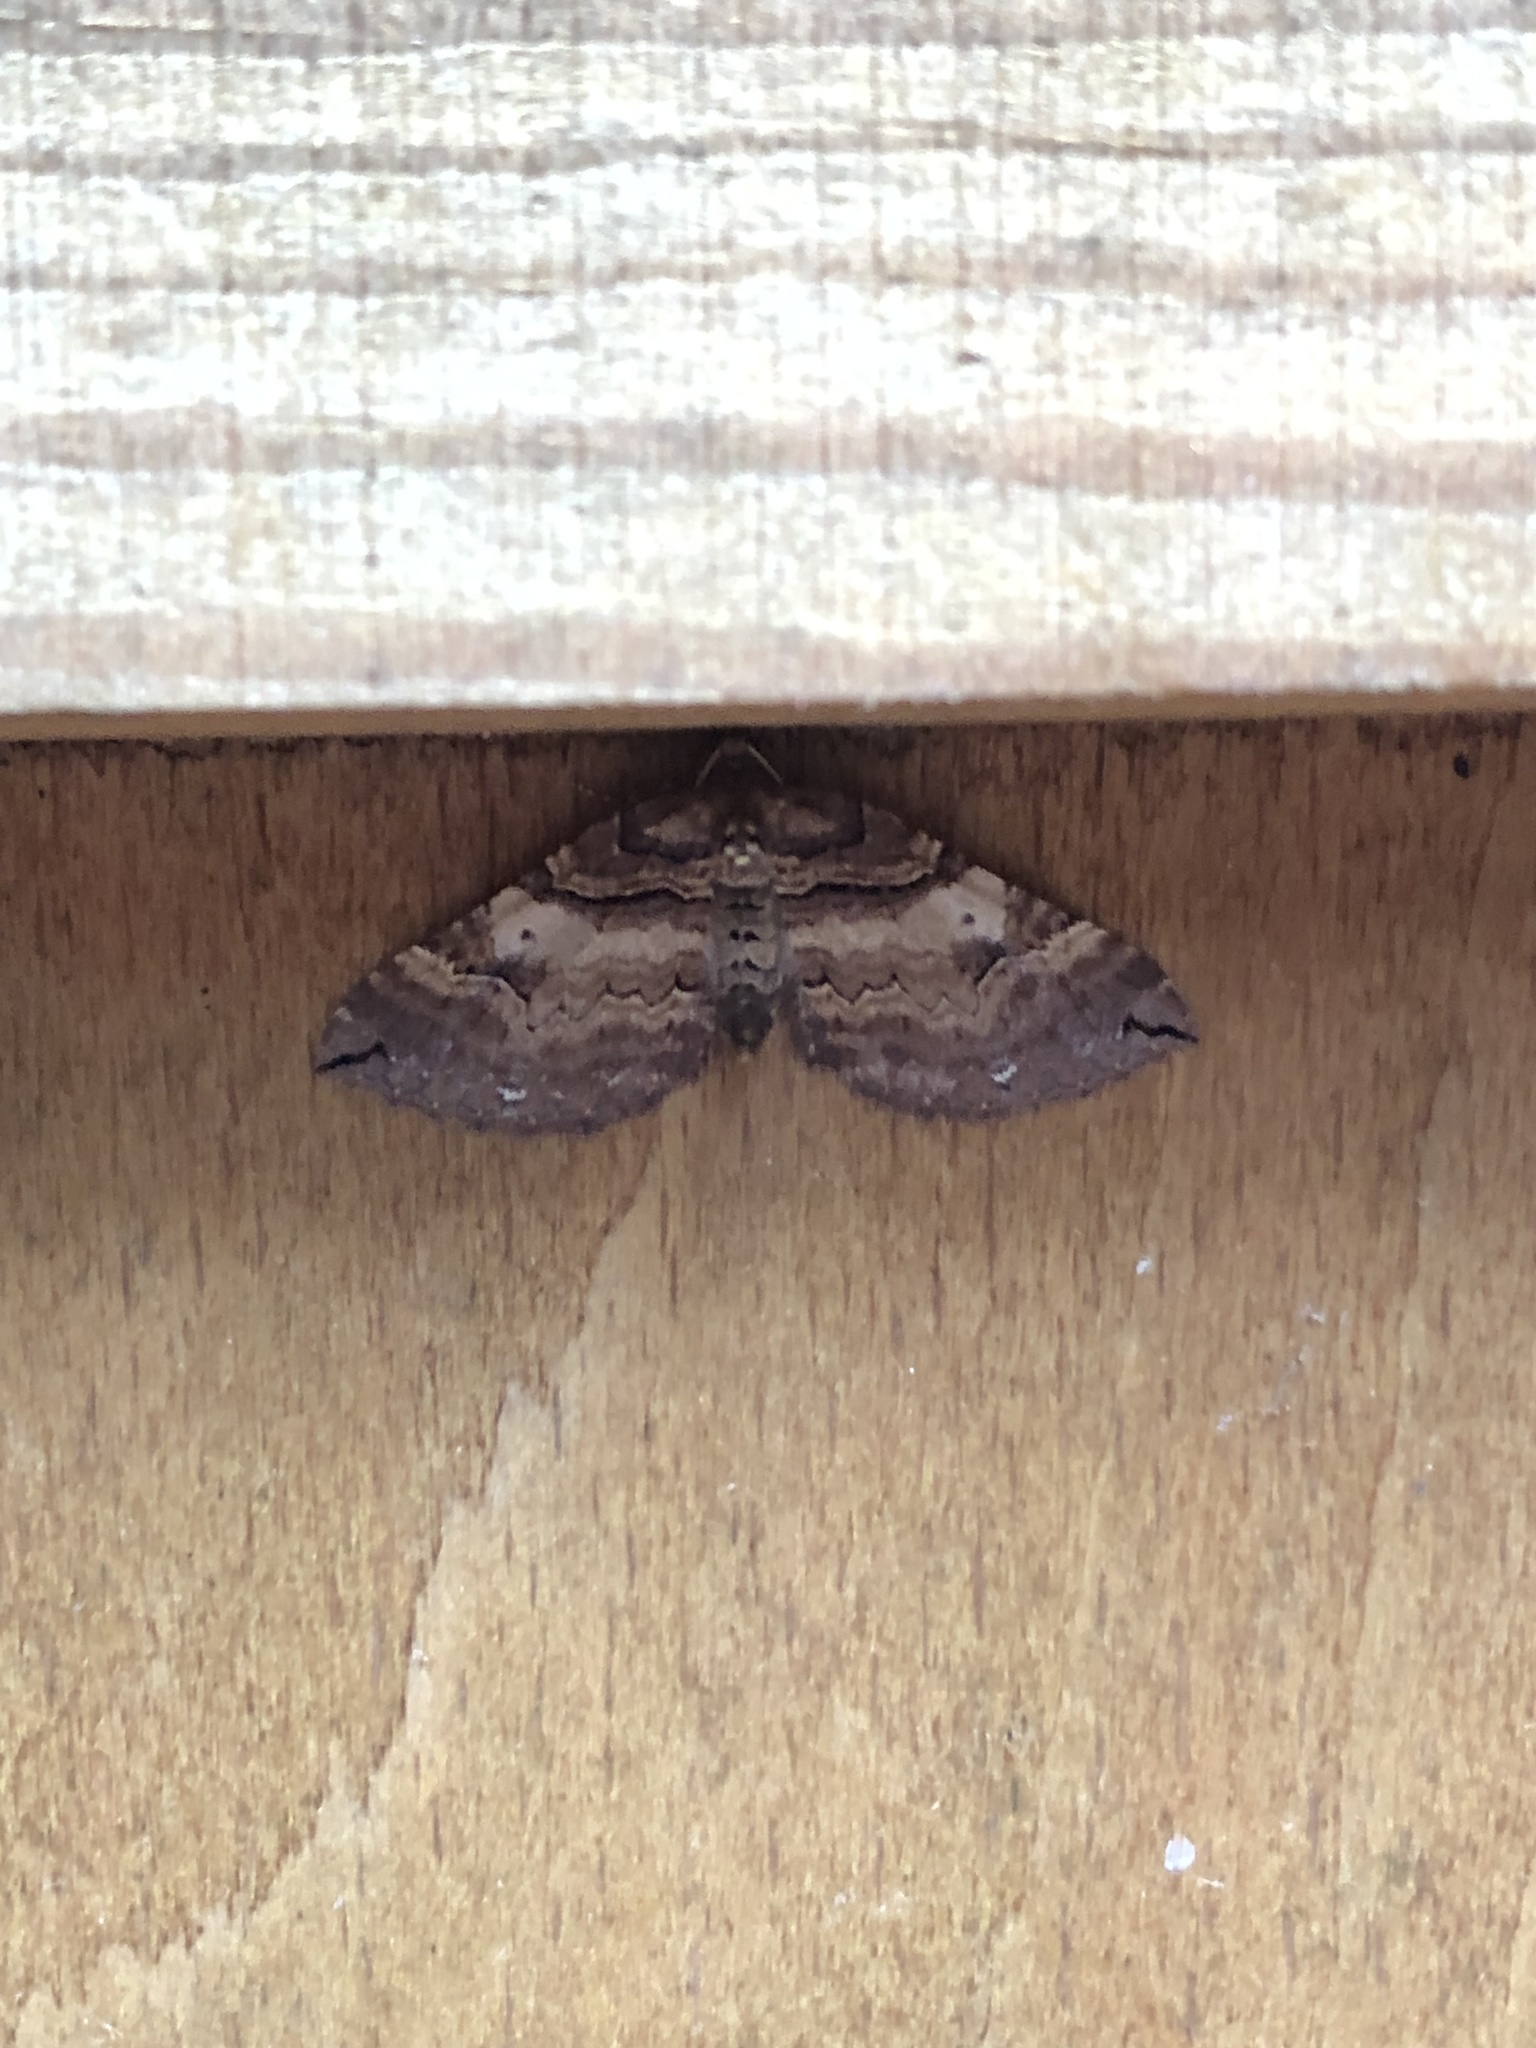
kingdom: Animalia
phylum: Arthropoda
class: Insecta
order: Lepidoptera
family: Geometridae
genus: Anticlea
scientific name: Anticlea badiata
